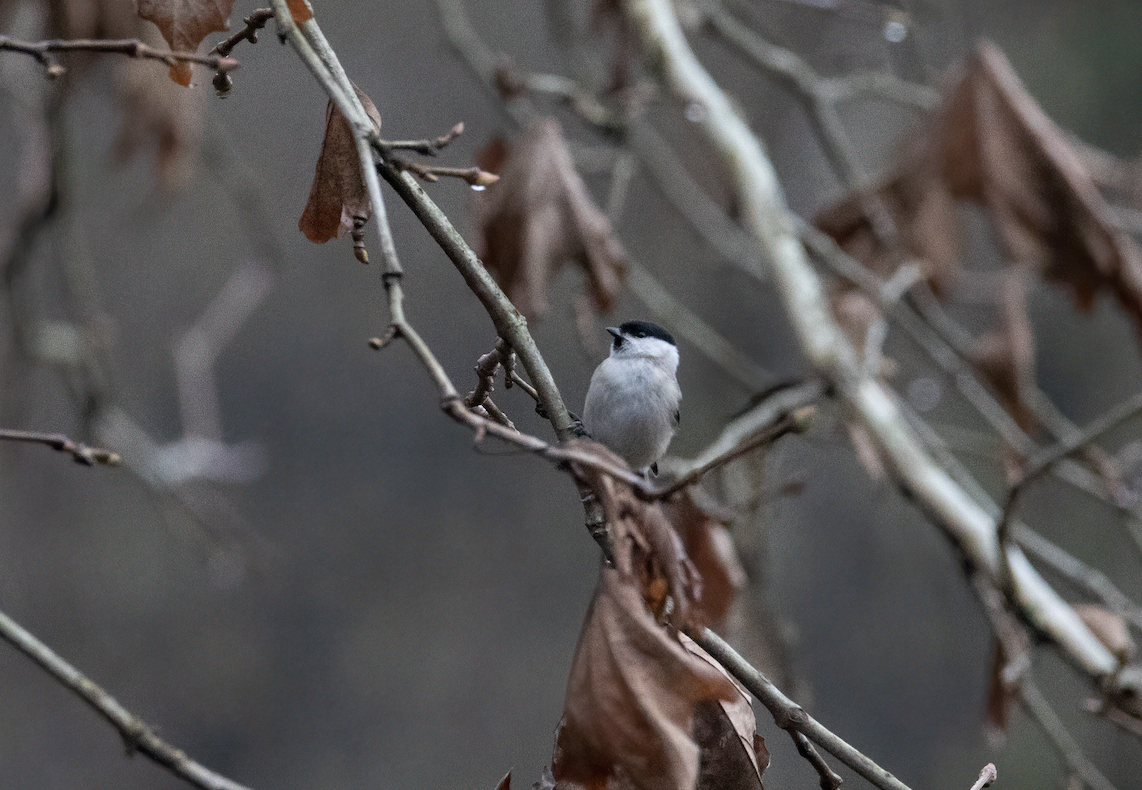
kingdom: Animalia
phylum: Chordata
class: Aves
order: Passeriformes
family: Paridae
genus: Poecile
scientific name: Poecile palustris
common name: Marsh tit
